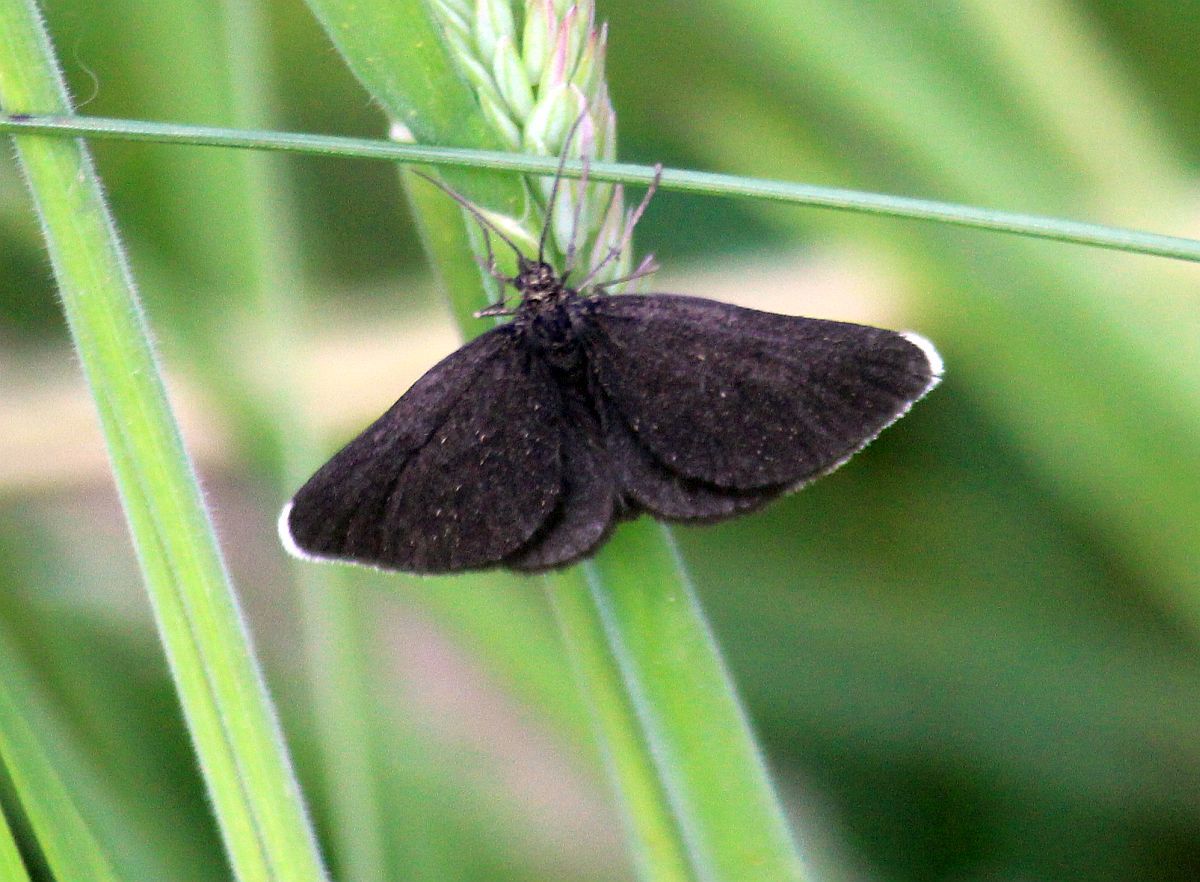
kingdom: Animalia
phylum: Arthropoda
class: Insecta
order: Lepidoptera
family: Geometridae
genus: Odezia
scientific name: Odezia atrata
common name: Chimney sweeper
